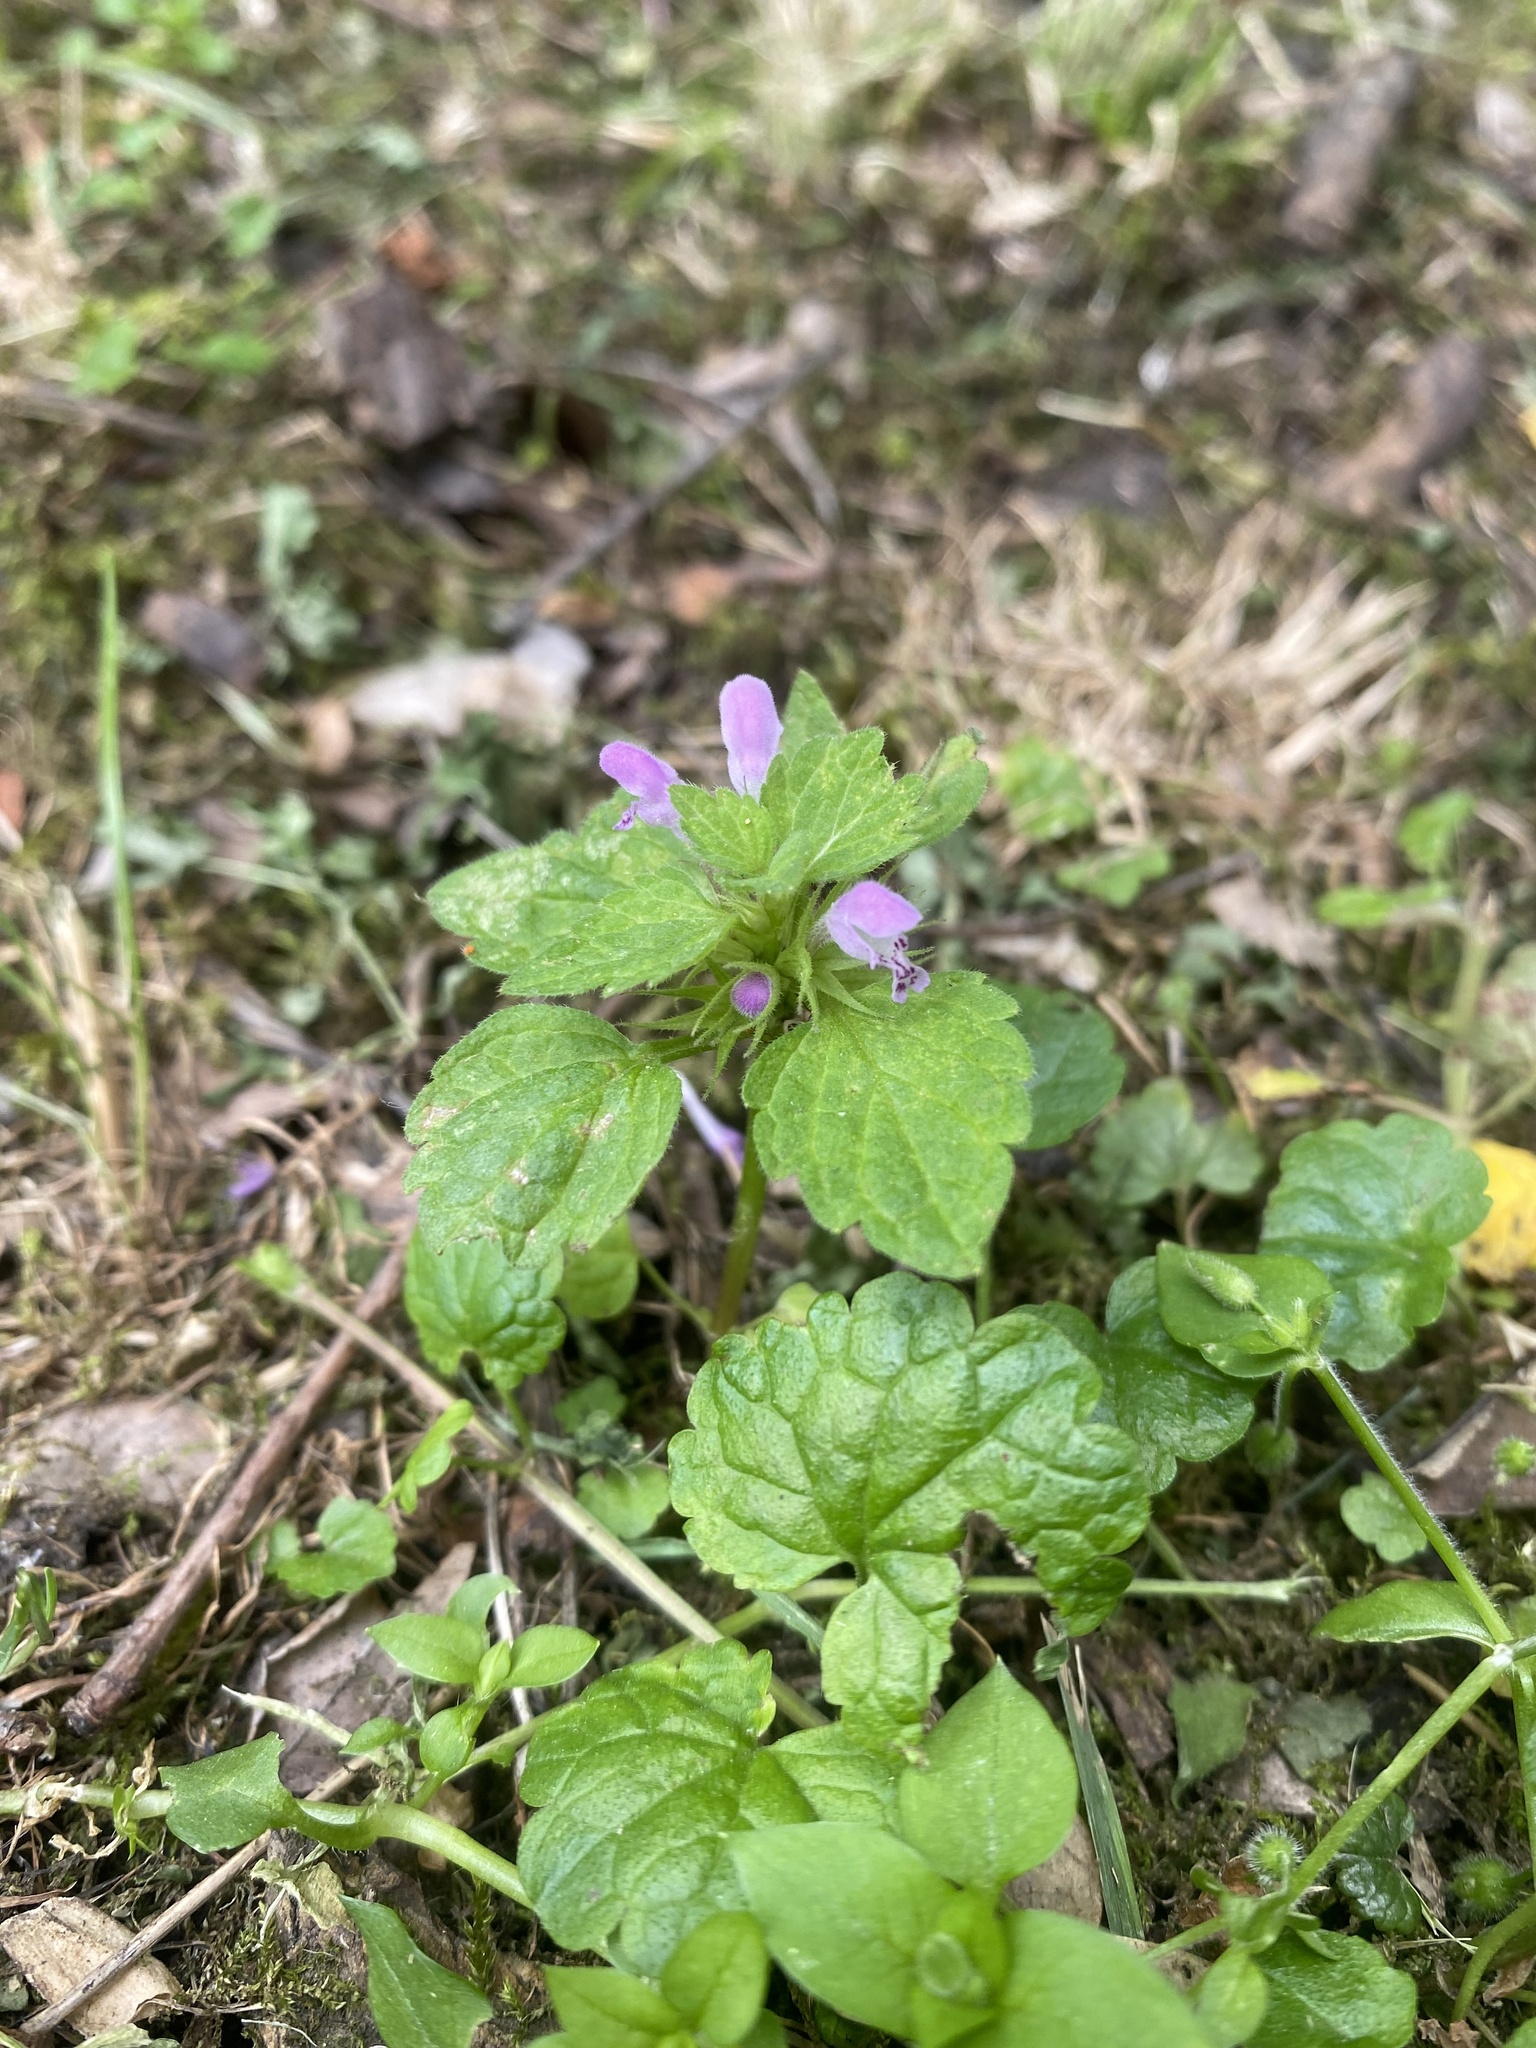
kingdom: Plantae
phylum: Tracheophyta
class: Magnoliopsida
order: Lamiales
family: Lamiaceae
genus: Lamium
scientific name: Lamium purpureum
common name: Red dead-nettle
